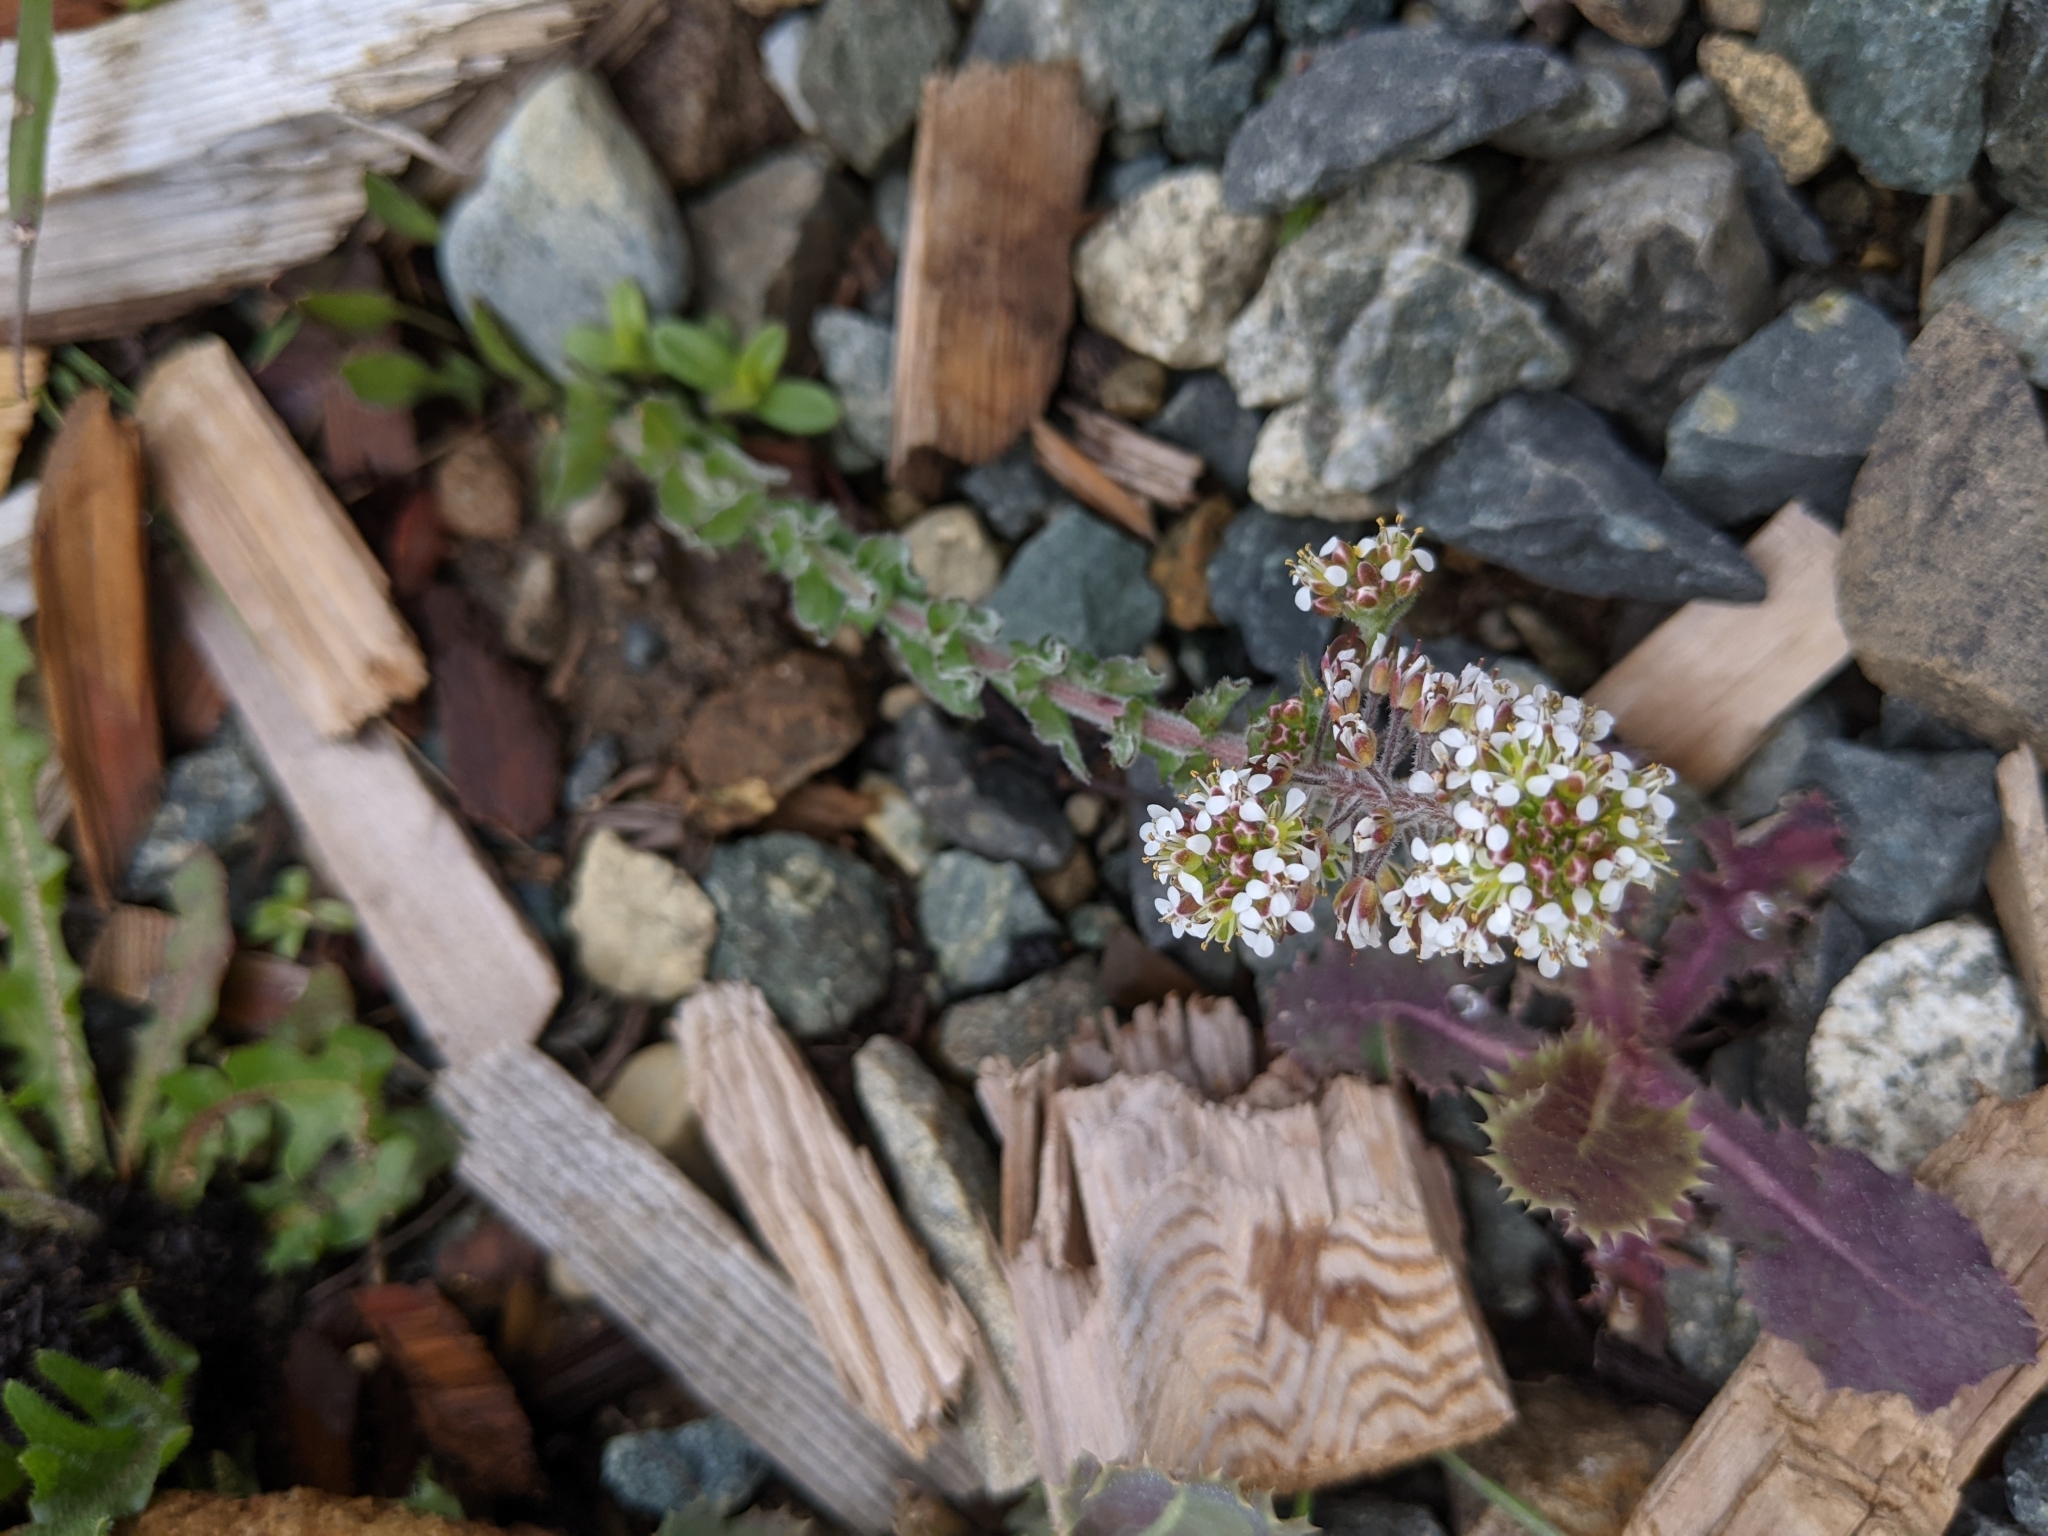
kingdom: Plantae
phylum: Tracheophyta
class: Magnoliopsida
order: Brassicales
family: Brassicaceae
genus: Lepidium
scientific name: Lepidium heterophyllum
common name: Smith's pepperwort
